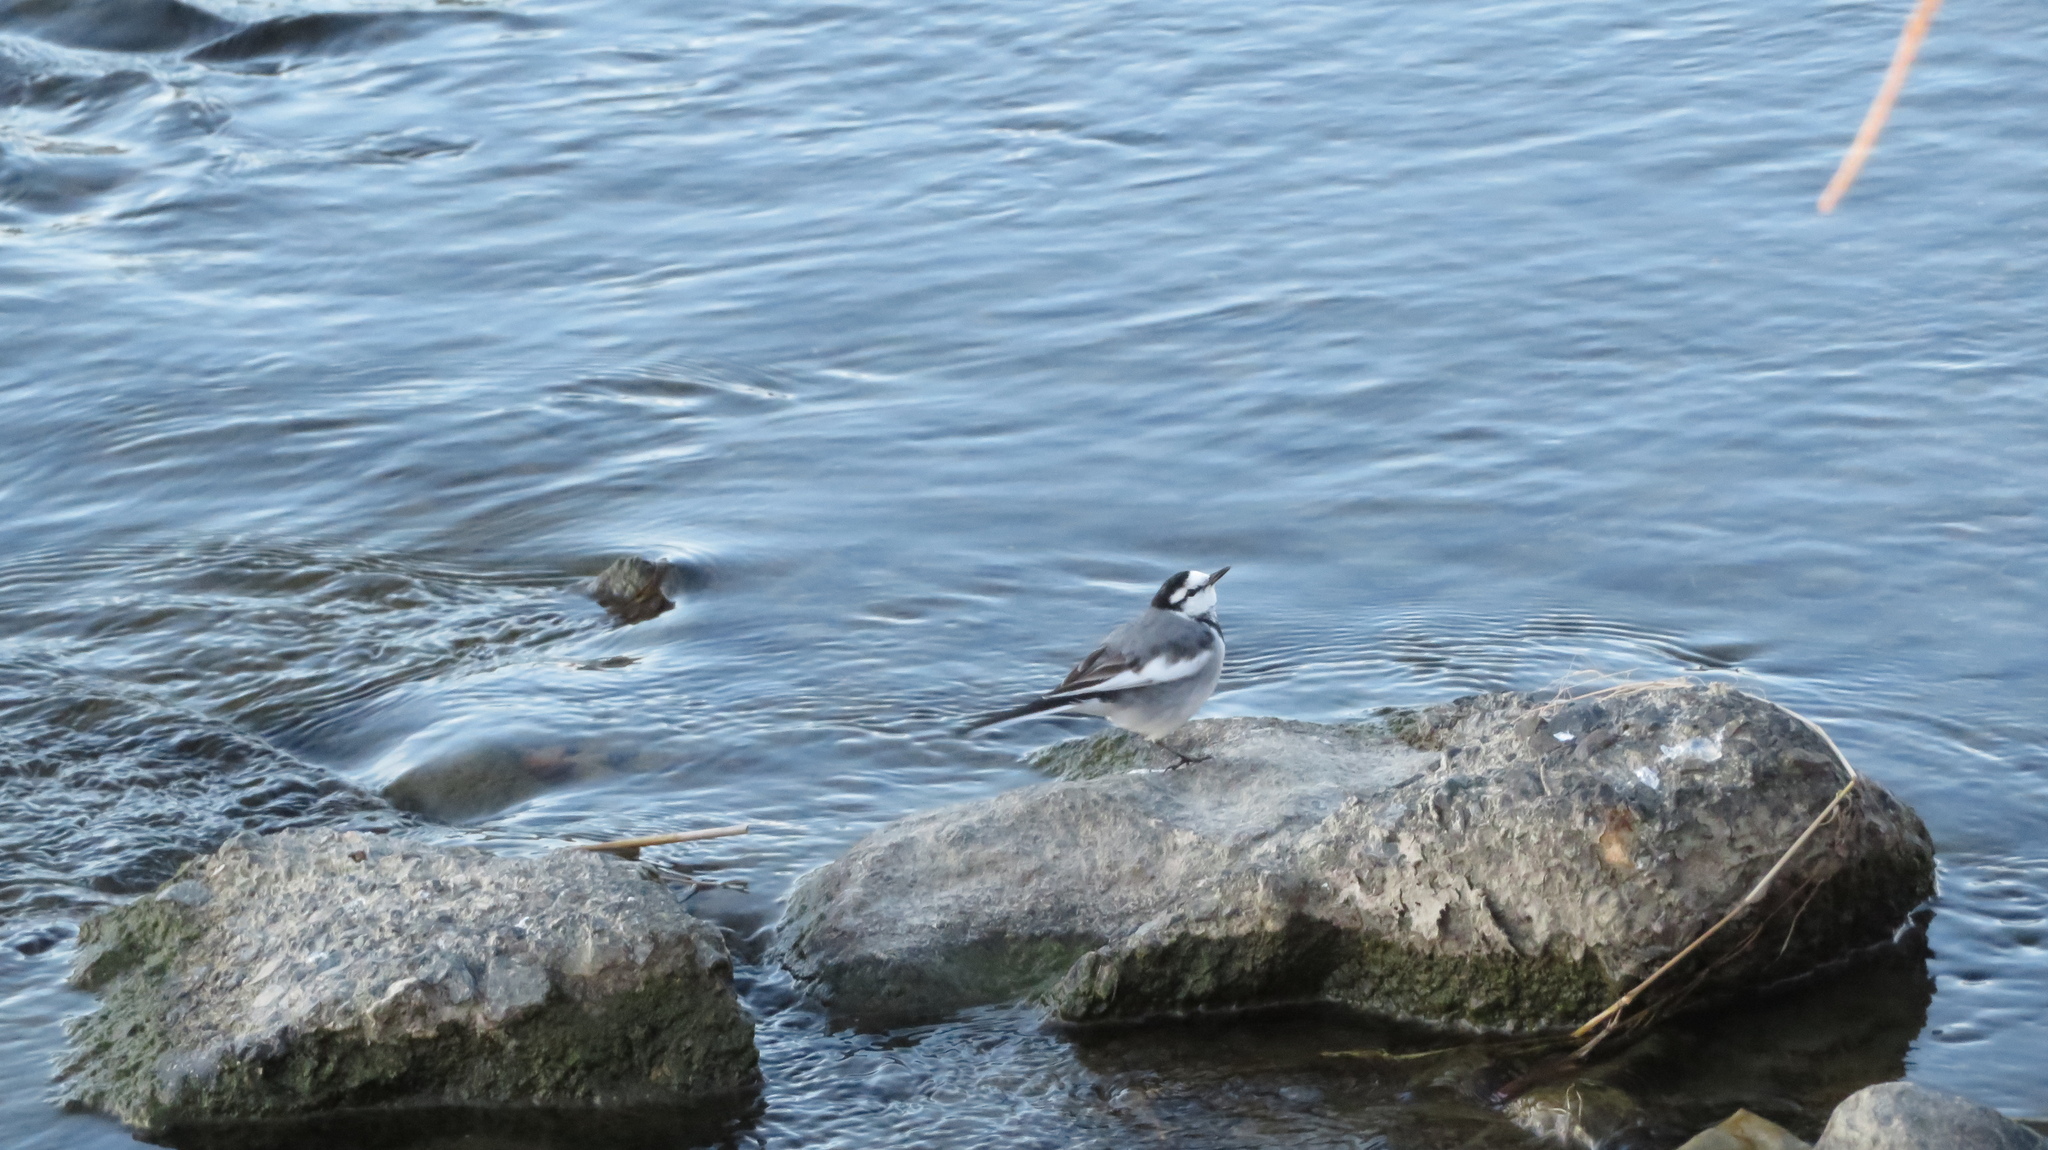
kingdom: Animalia
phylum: Chordata
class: Aves
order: Passeriformes
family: Motacillidae
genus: Motacilla
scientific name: Motacilla alba
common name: White wagtail
